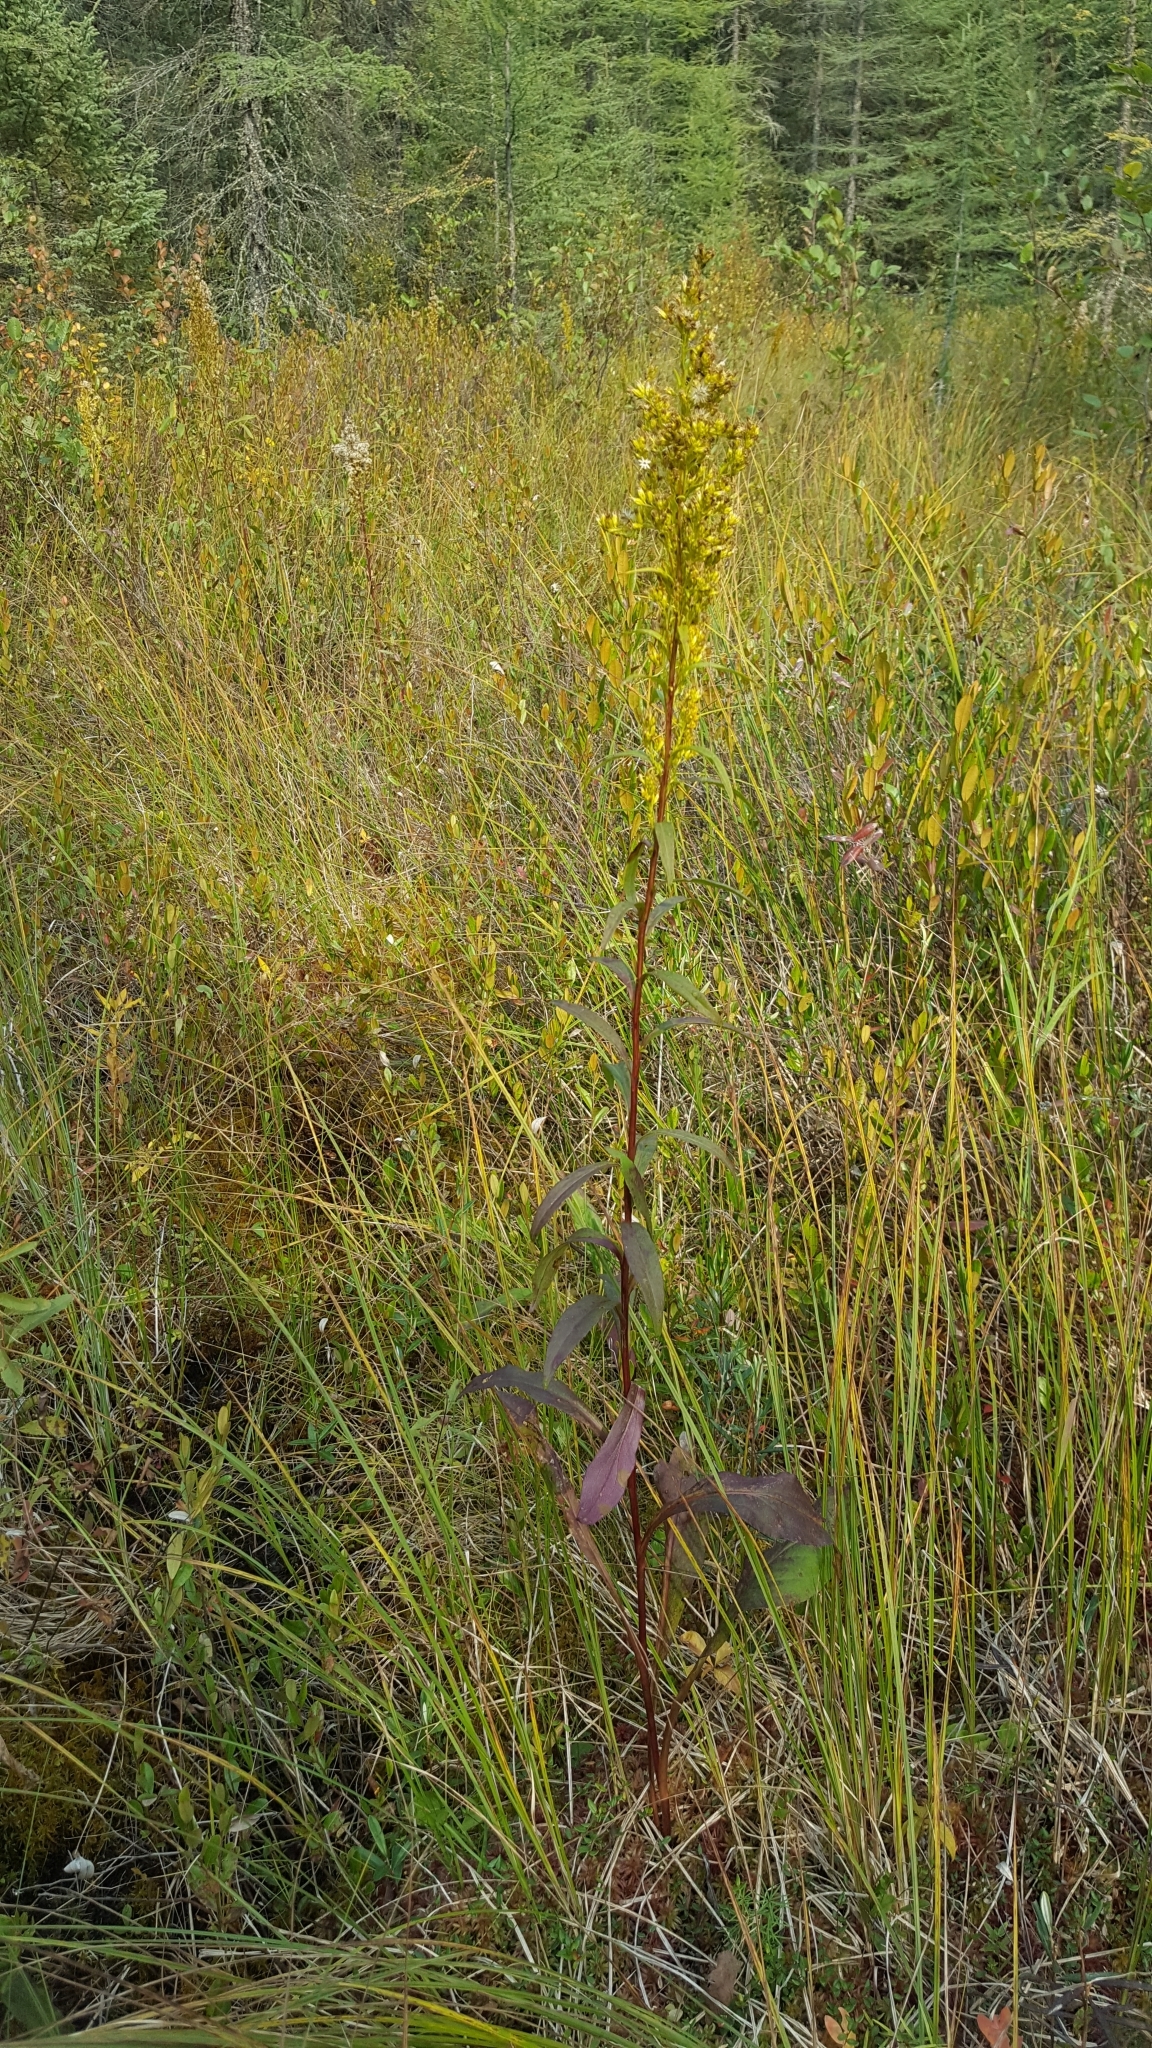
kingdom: Plantae
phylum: Tracheophyta
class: Magnoliopsida
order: Asterales
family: Asteraceae
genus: Solidago
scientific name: Solidago uliginosa
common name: Bog goldenrod
